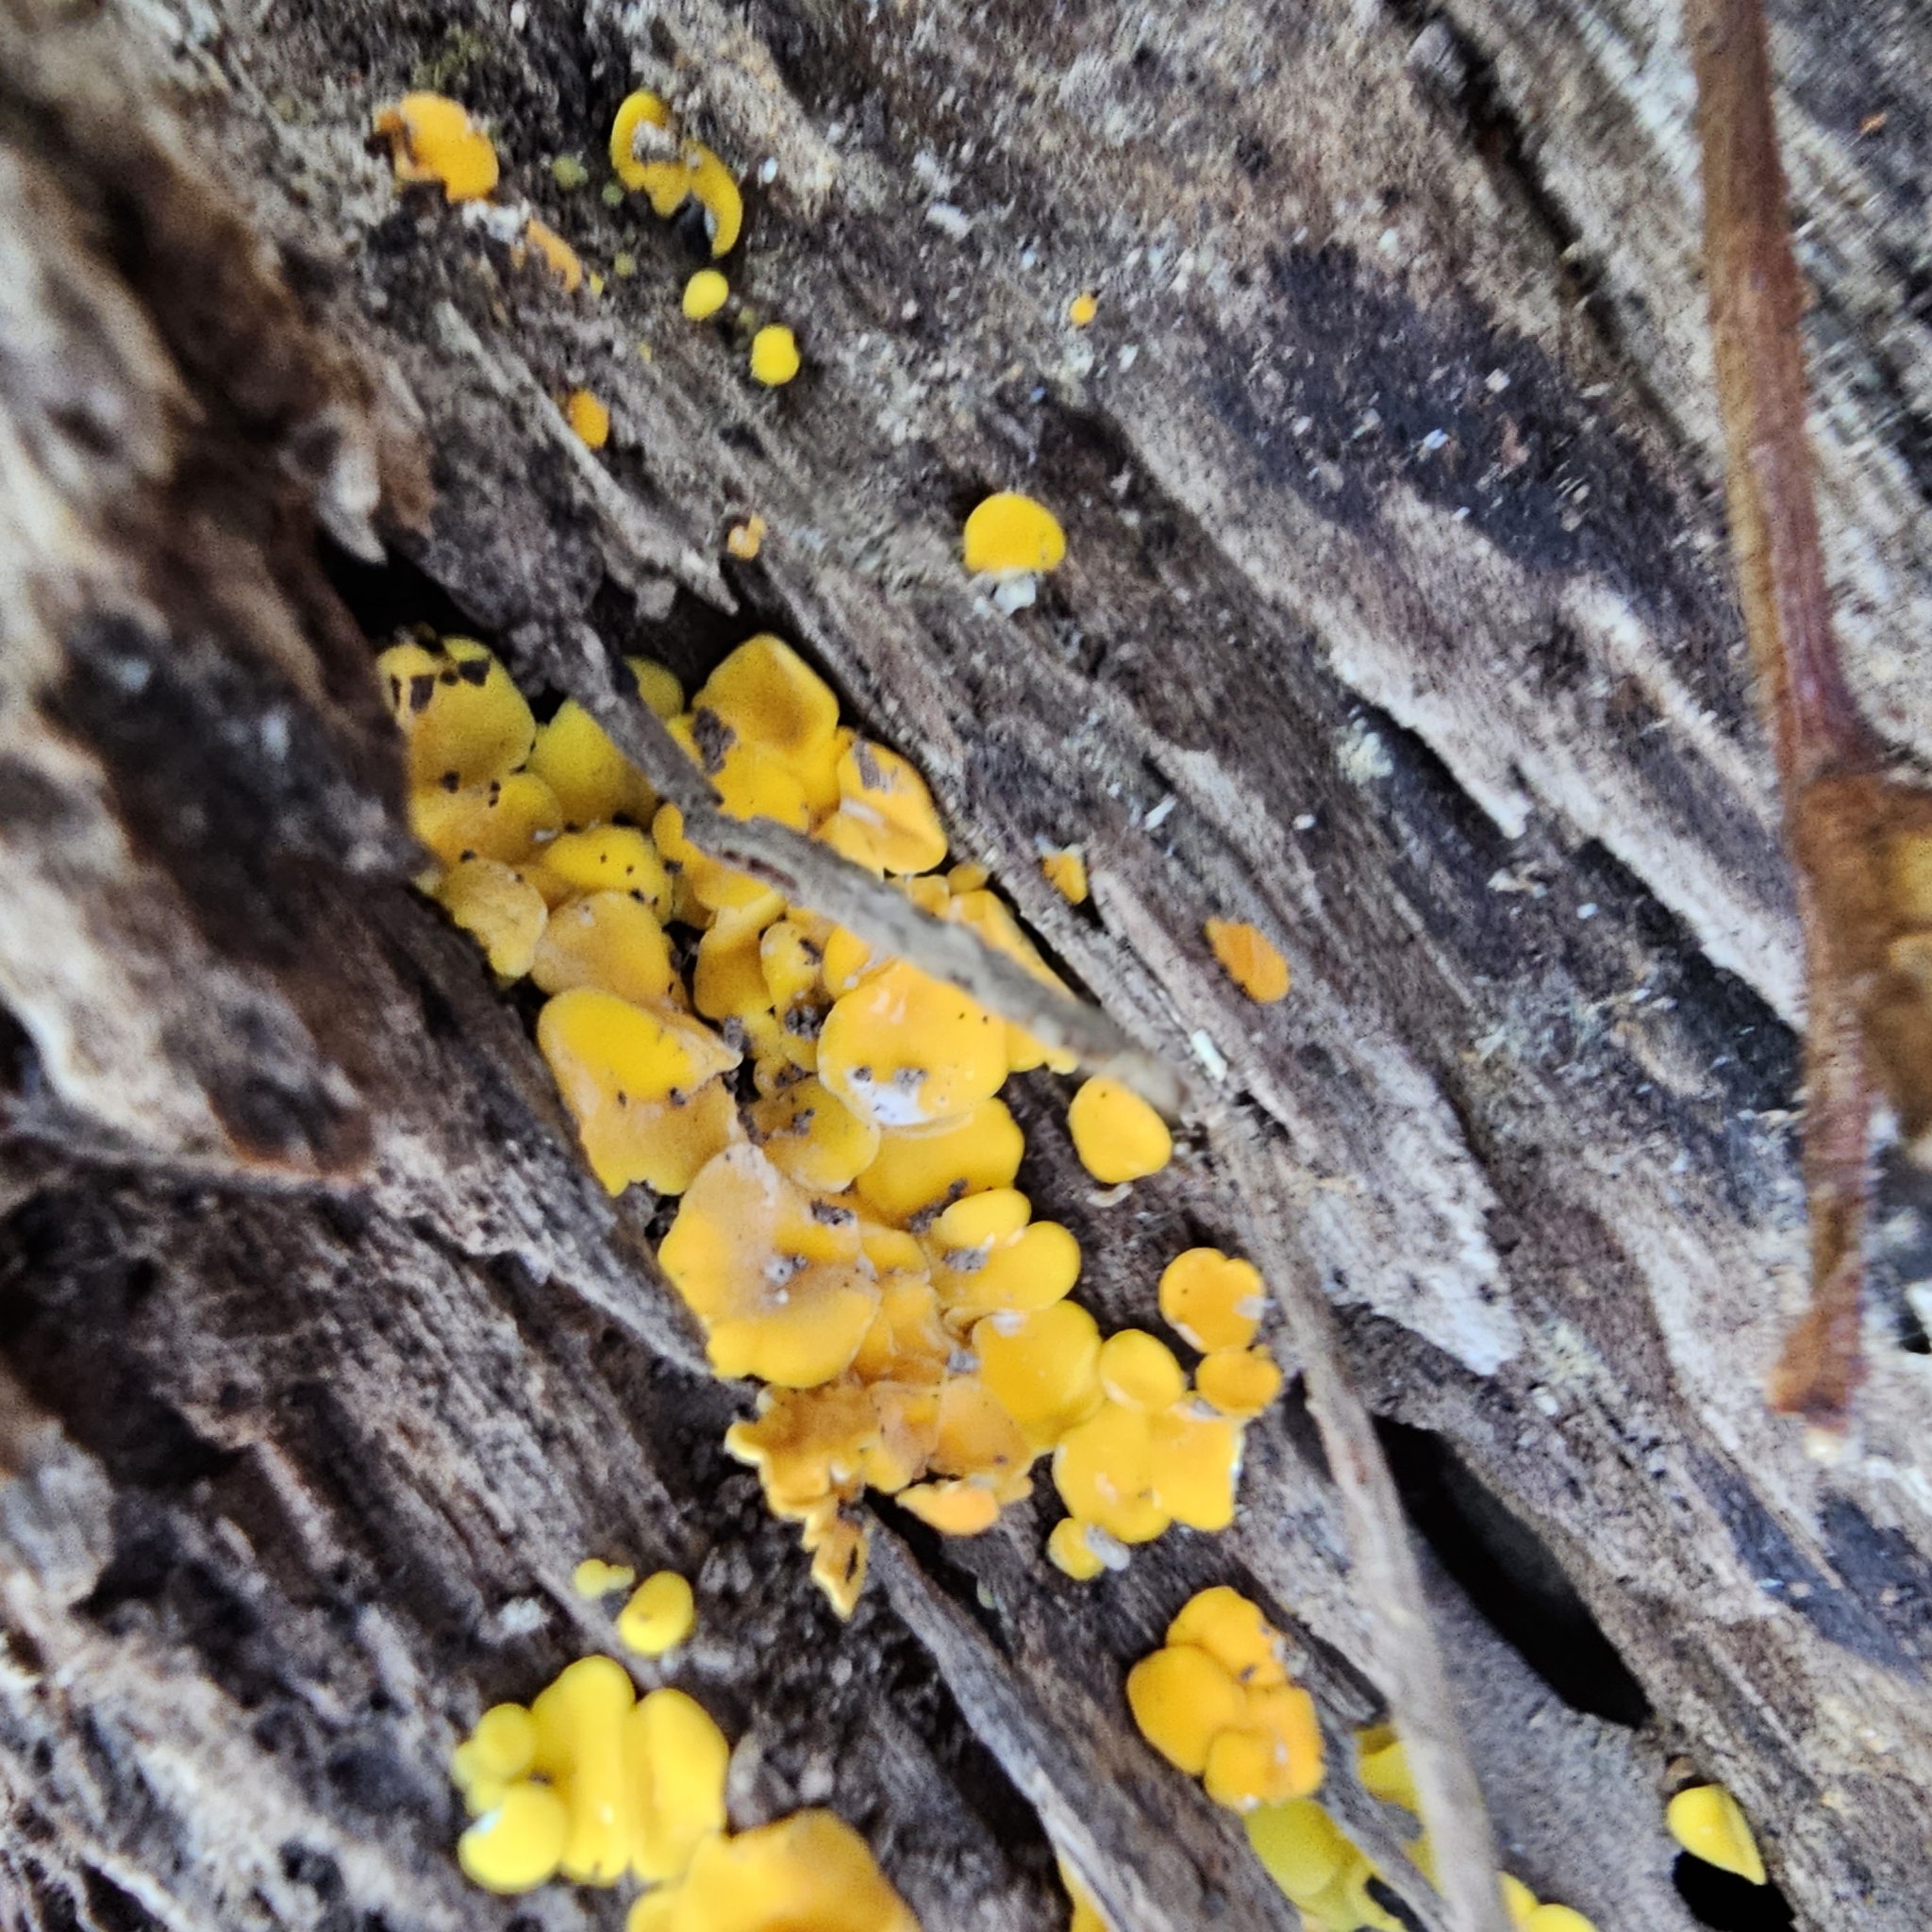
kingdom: Fungi
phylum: Ascomycota
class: Leotiomycetes
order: Helotiales
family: Pezizellaceae
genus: Calycina
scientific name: Calycina citrina
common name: Yellow fairy cups
